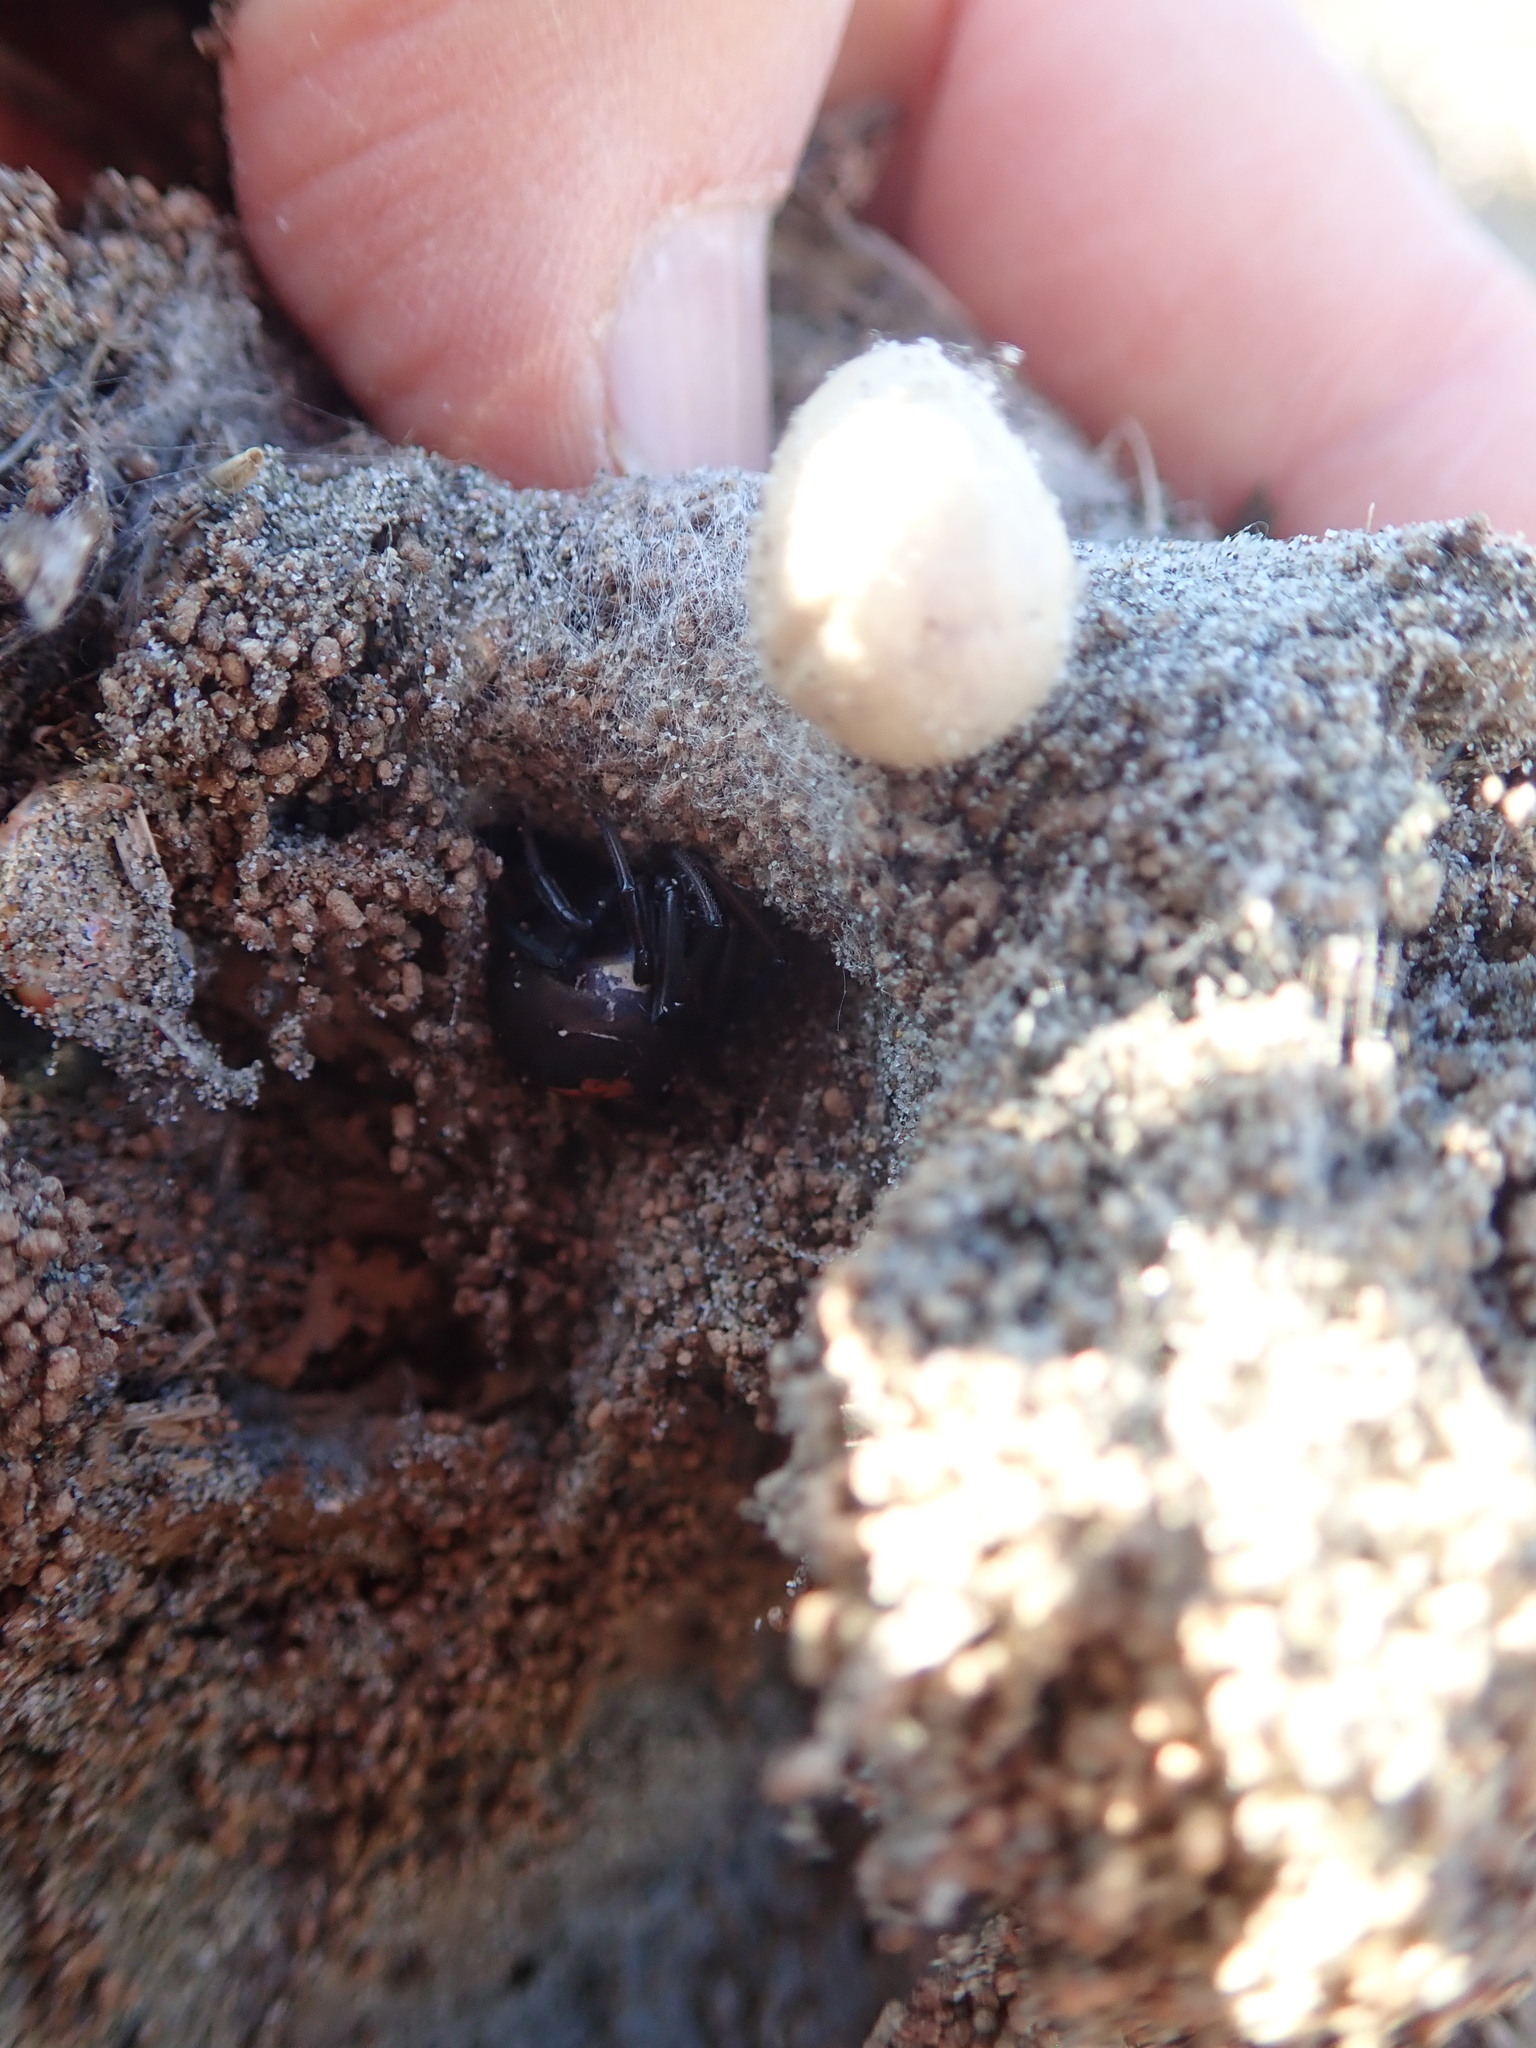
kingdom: Animalia
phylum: Arthropoda
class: Arachnida
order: Araneae
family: Theridiidae
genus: Latrodectus
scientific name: Latrodectus katipo
